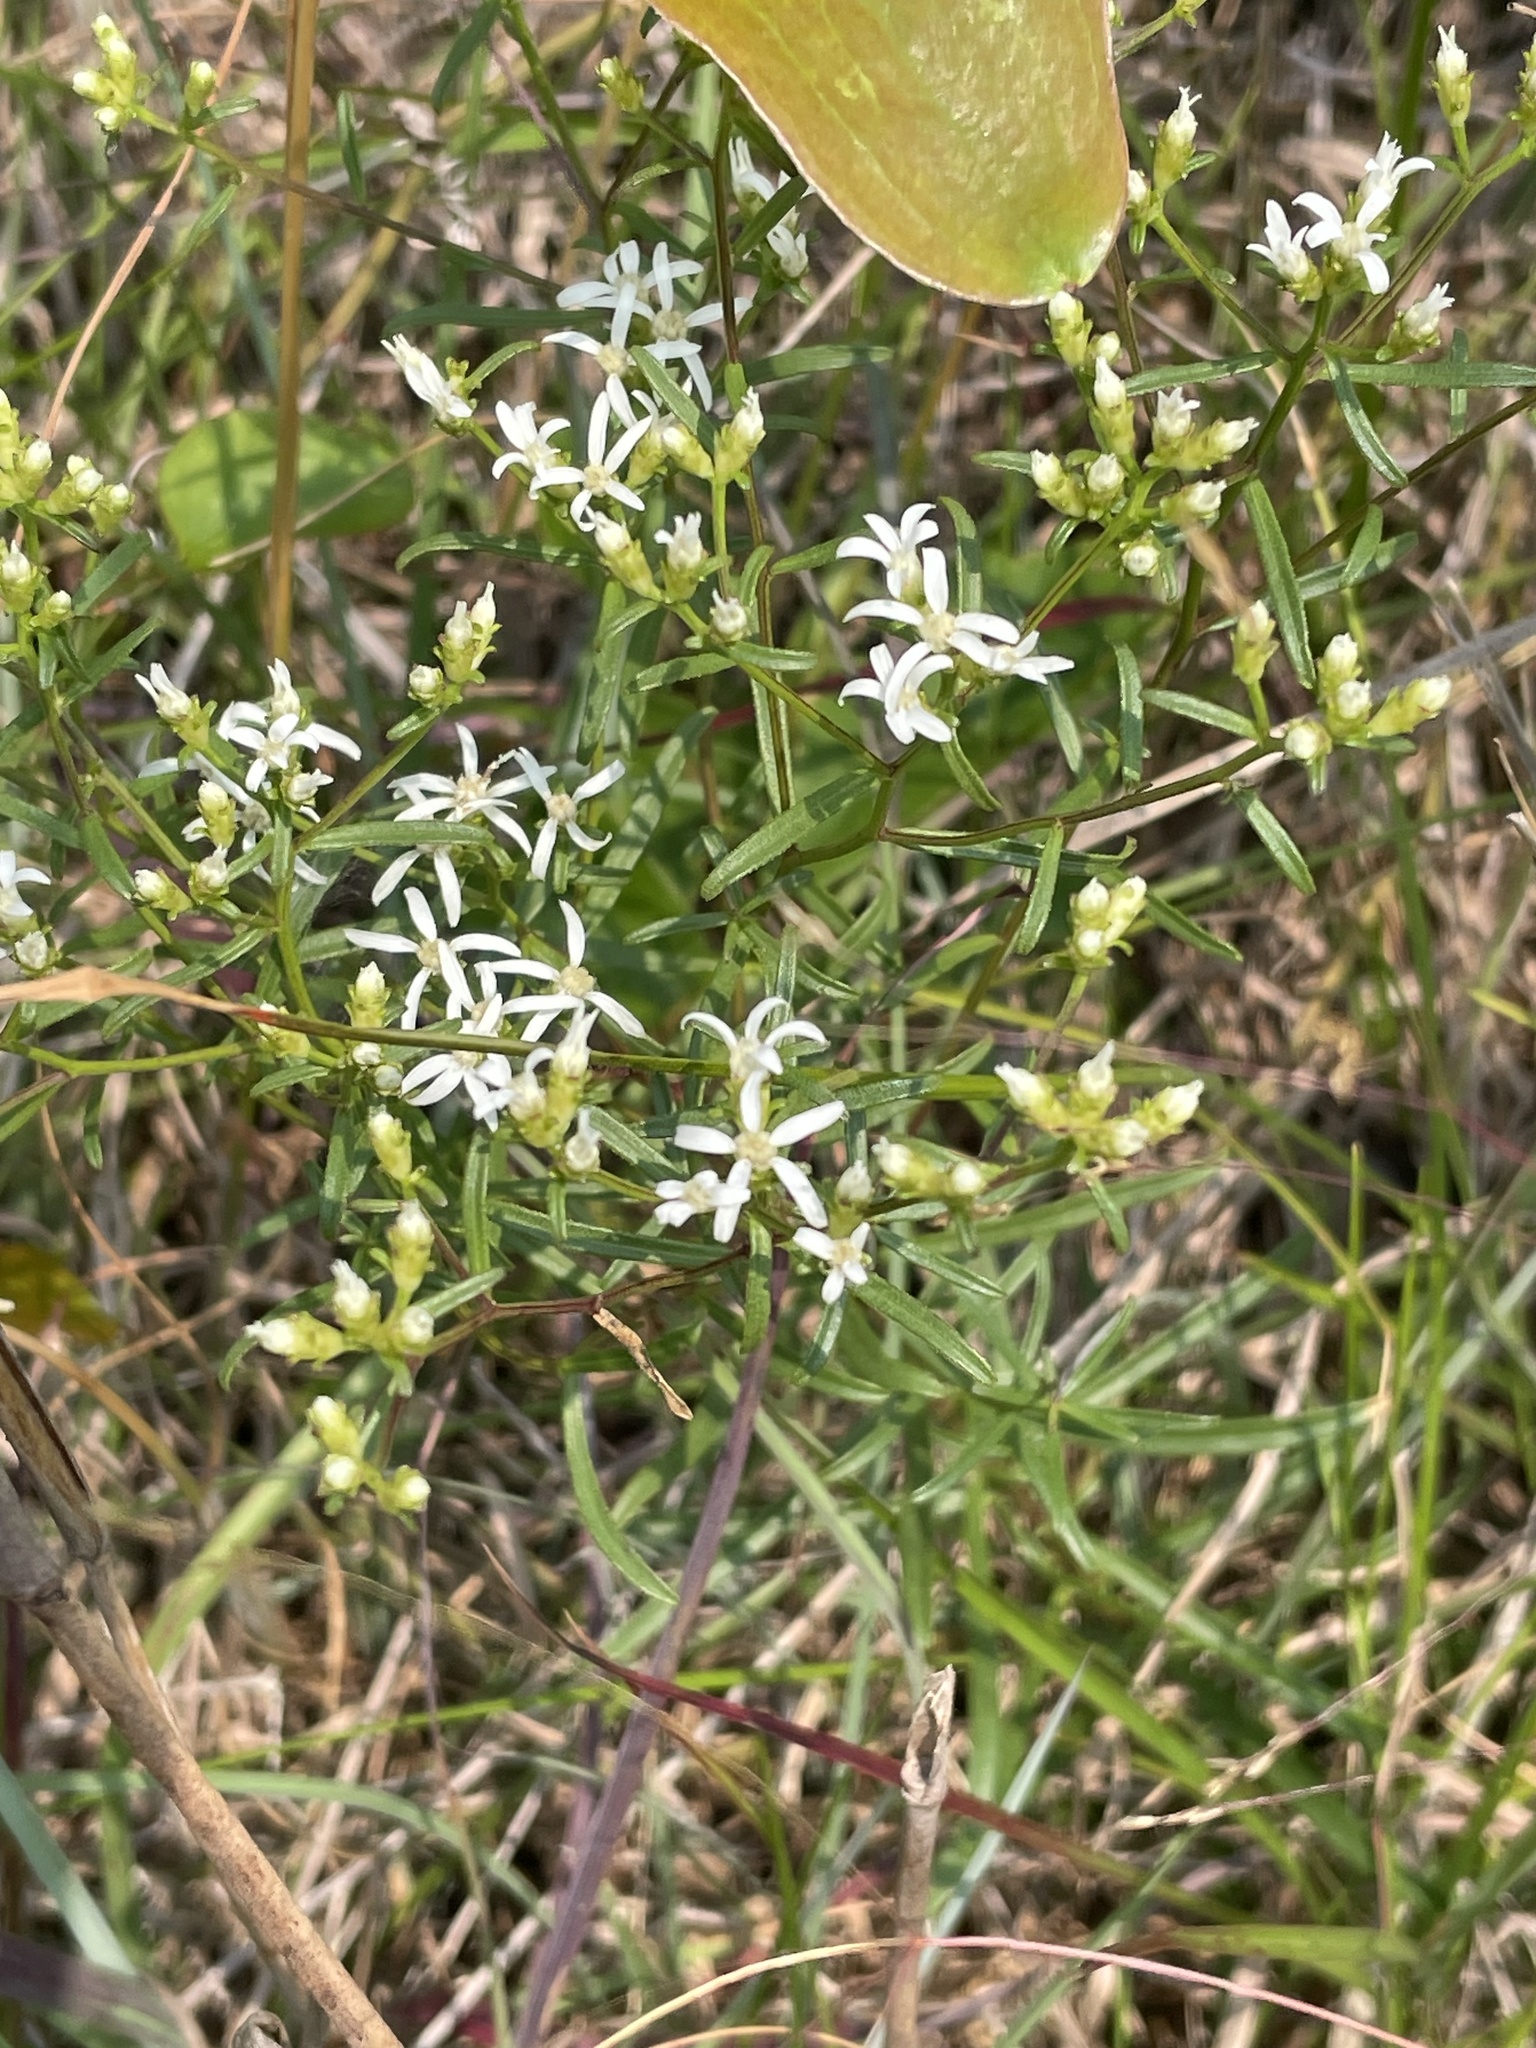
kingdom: Plantae
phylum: Tracheophyta
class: Magnoliopsida
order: Asterales
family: Asteraceae
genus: Sericocarpus
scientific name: Sericocarpus linifolius
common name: Narrow-leaf aster
